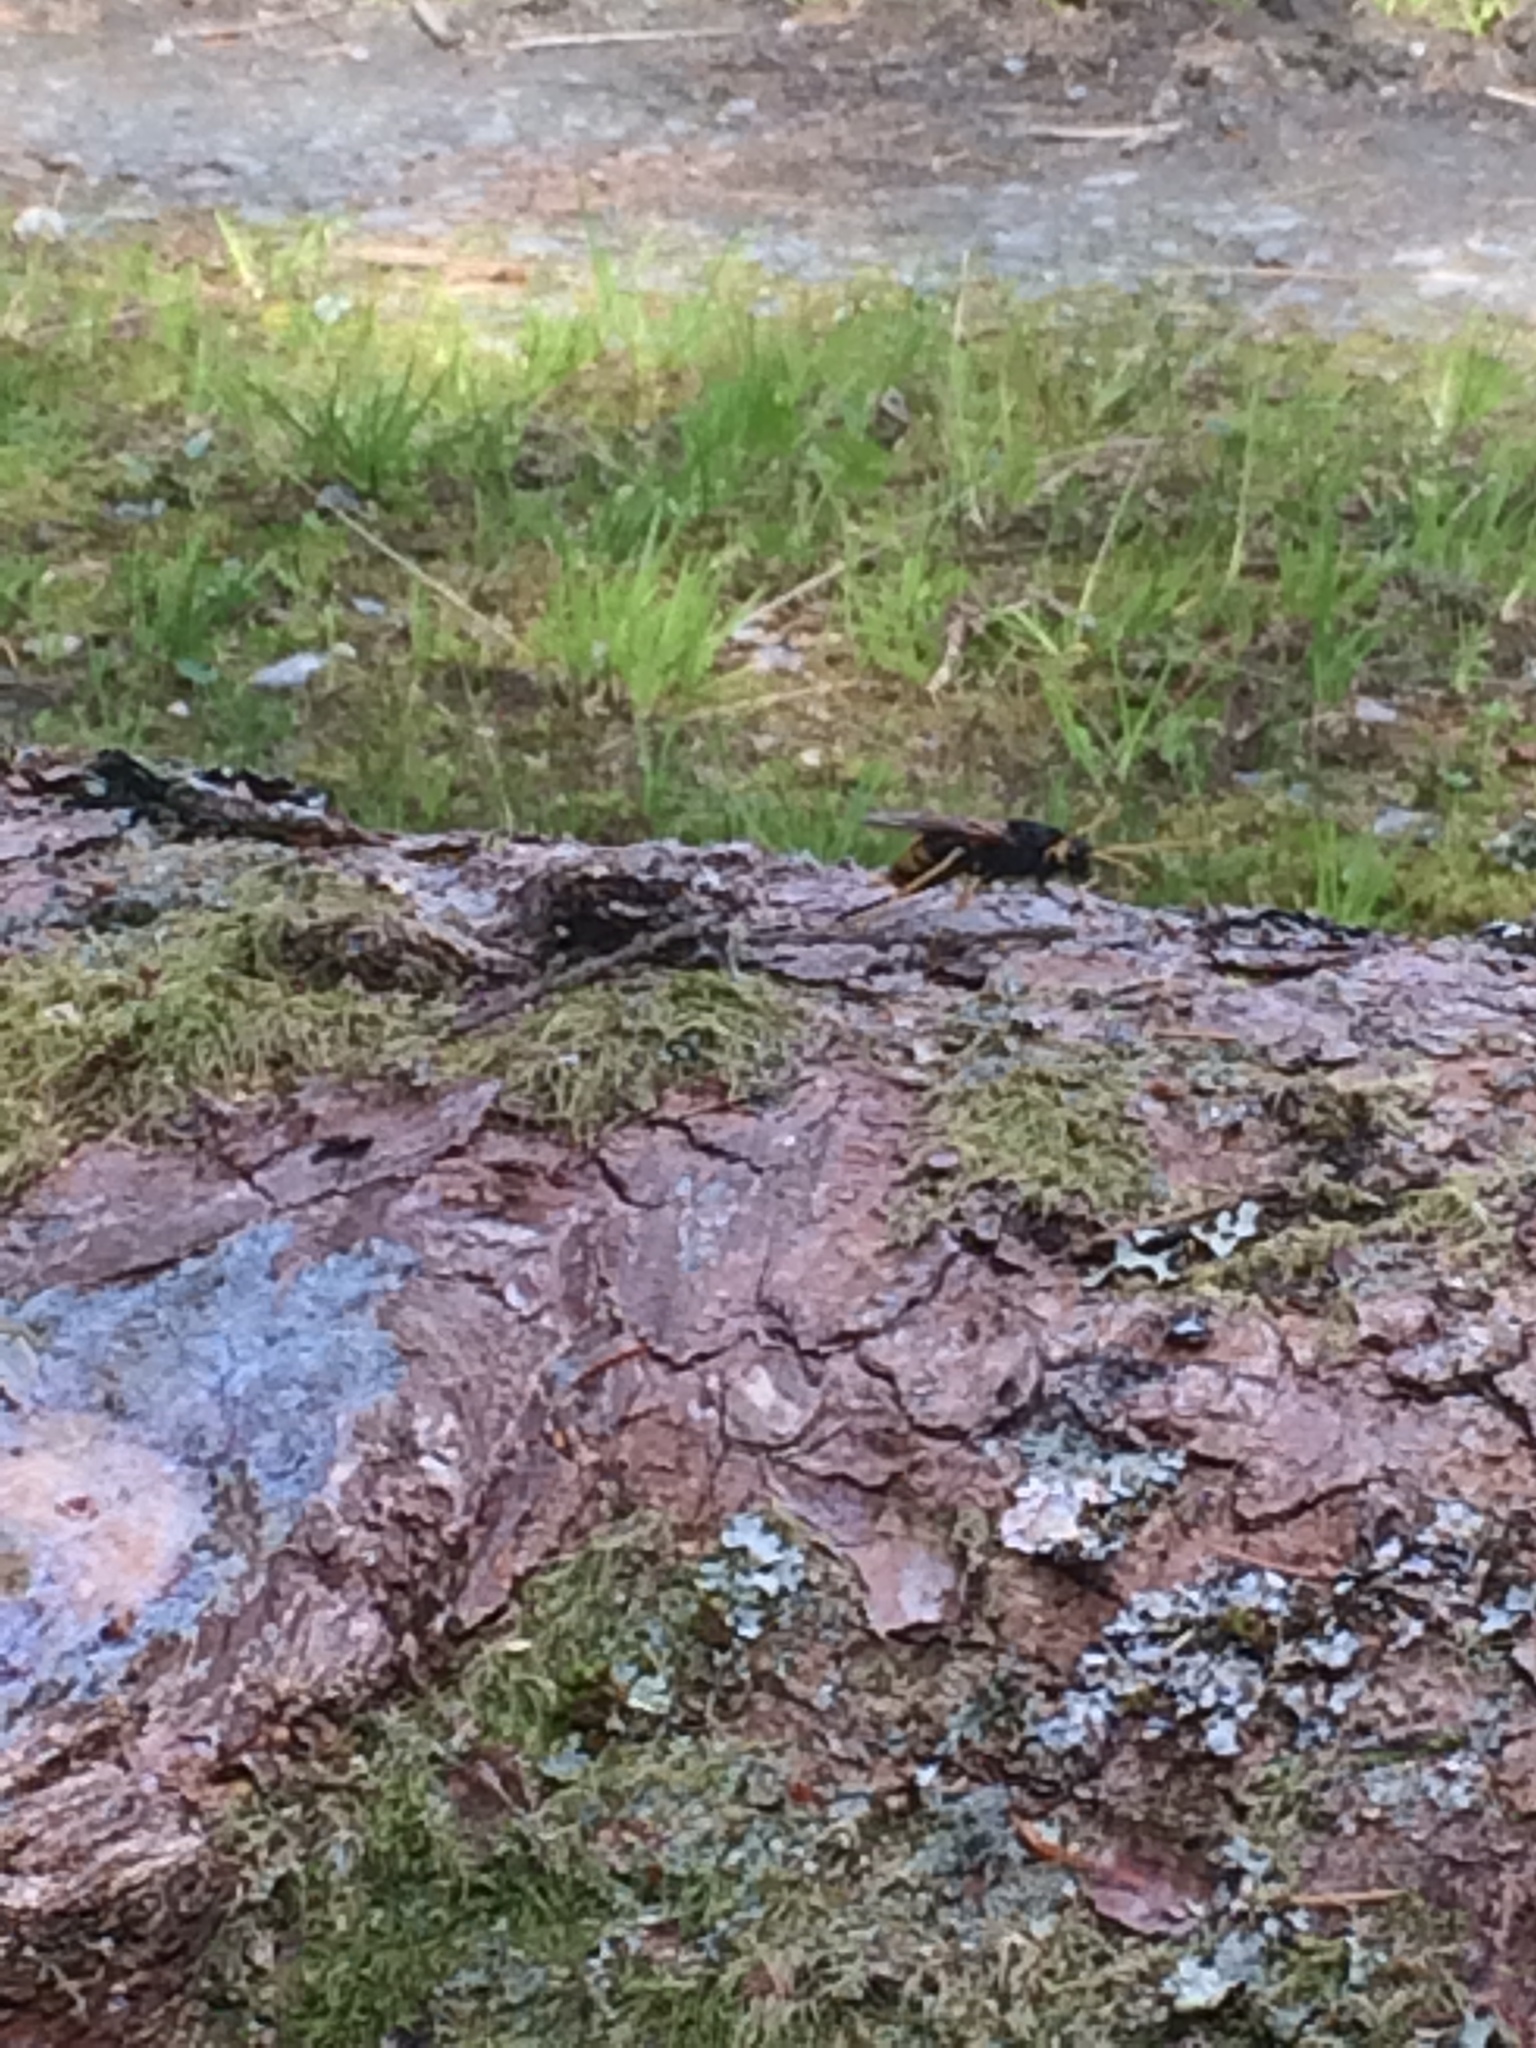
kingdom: Animalia
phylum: Arthropoda
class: Insecta
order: Hymenoptera
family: Siricidae
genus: Urocerus
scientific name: Urocerus gigas
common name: Giant woodwasp
